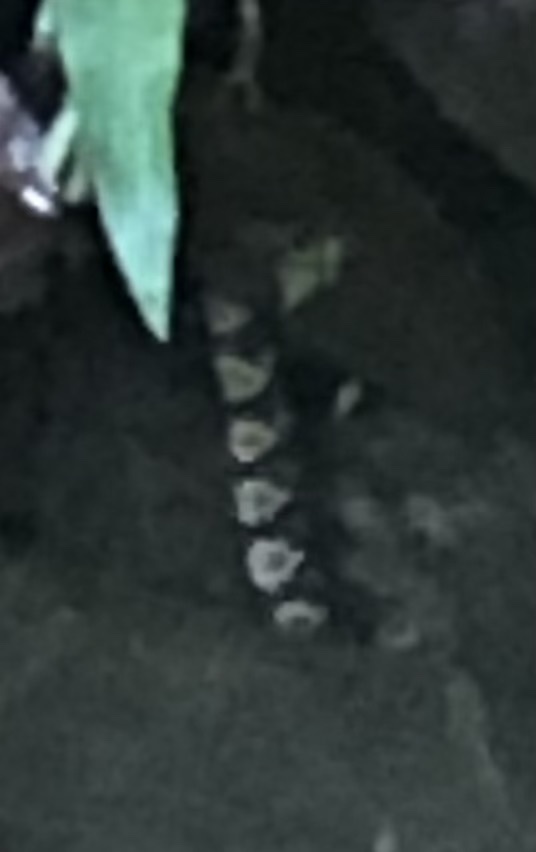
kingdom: Animalia
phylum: Chordata
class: Squamata
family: Colubridae
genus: Nerodia
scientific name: Nerodia sipedon
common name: Northern water snake
